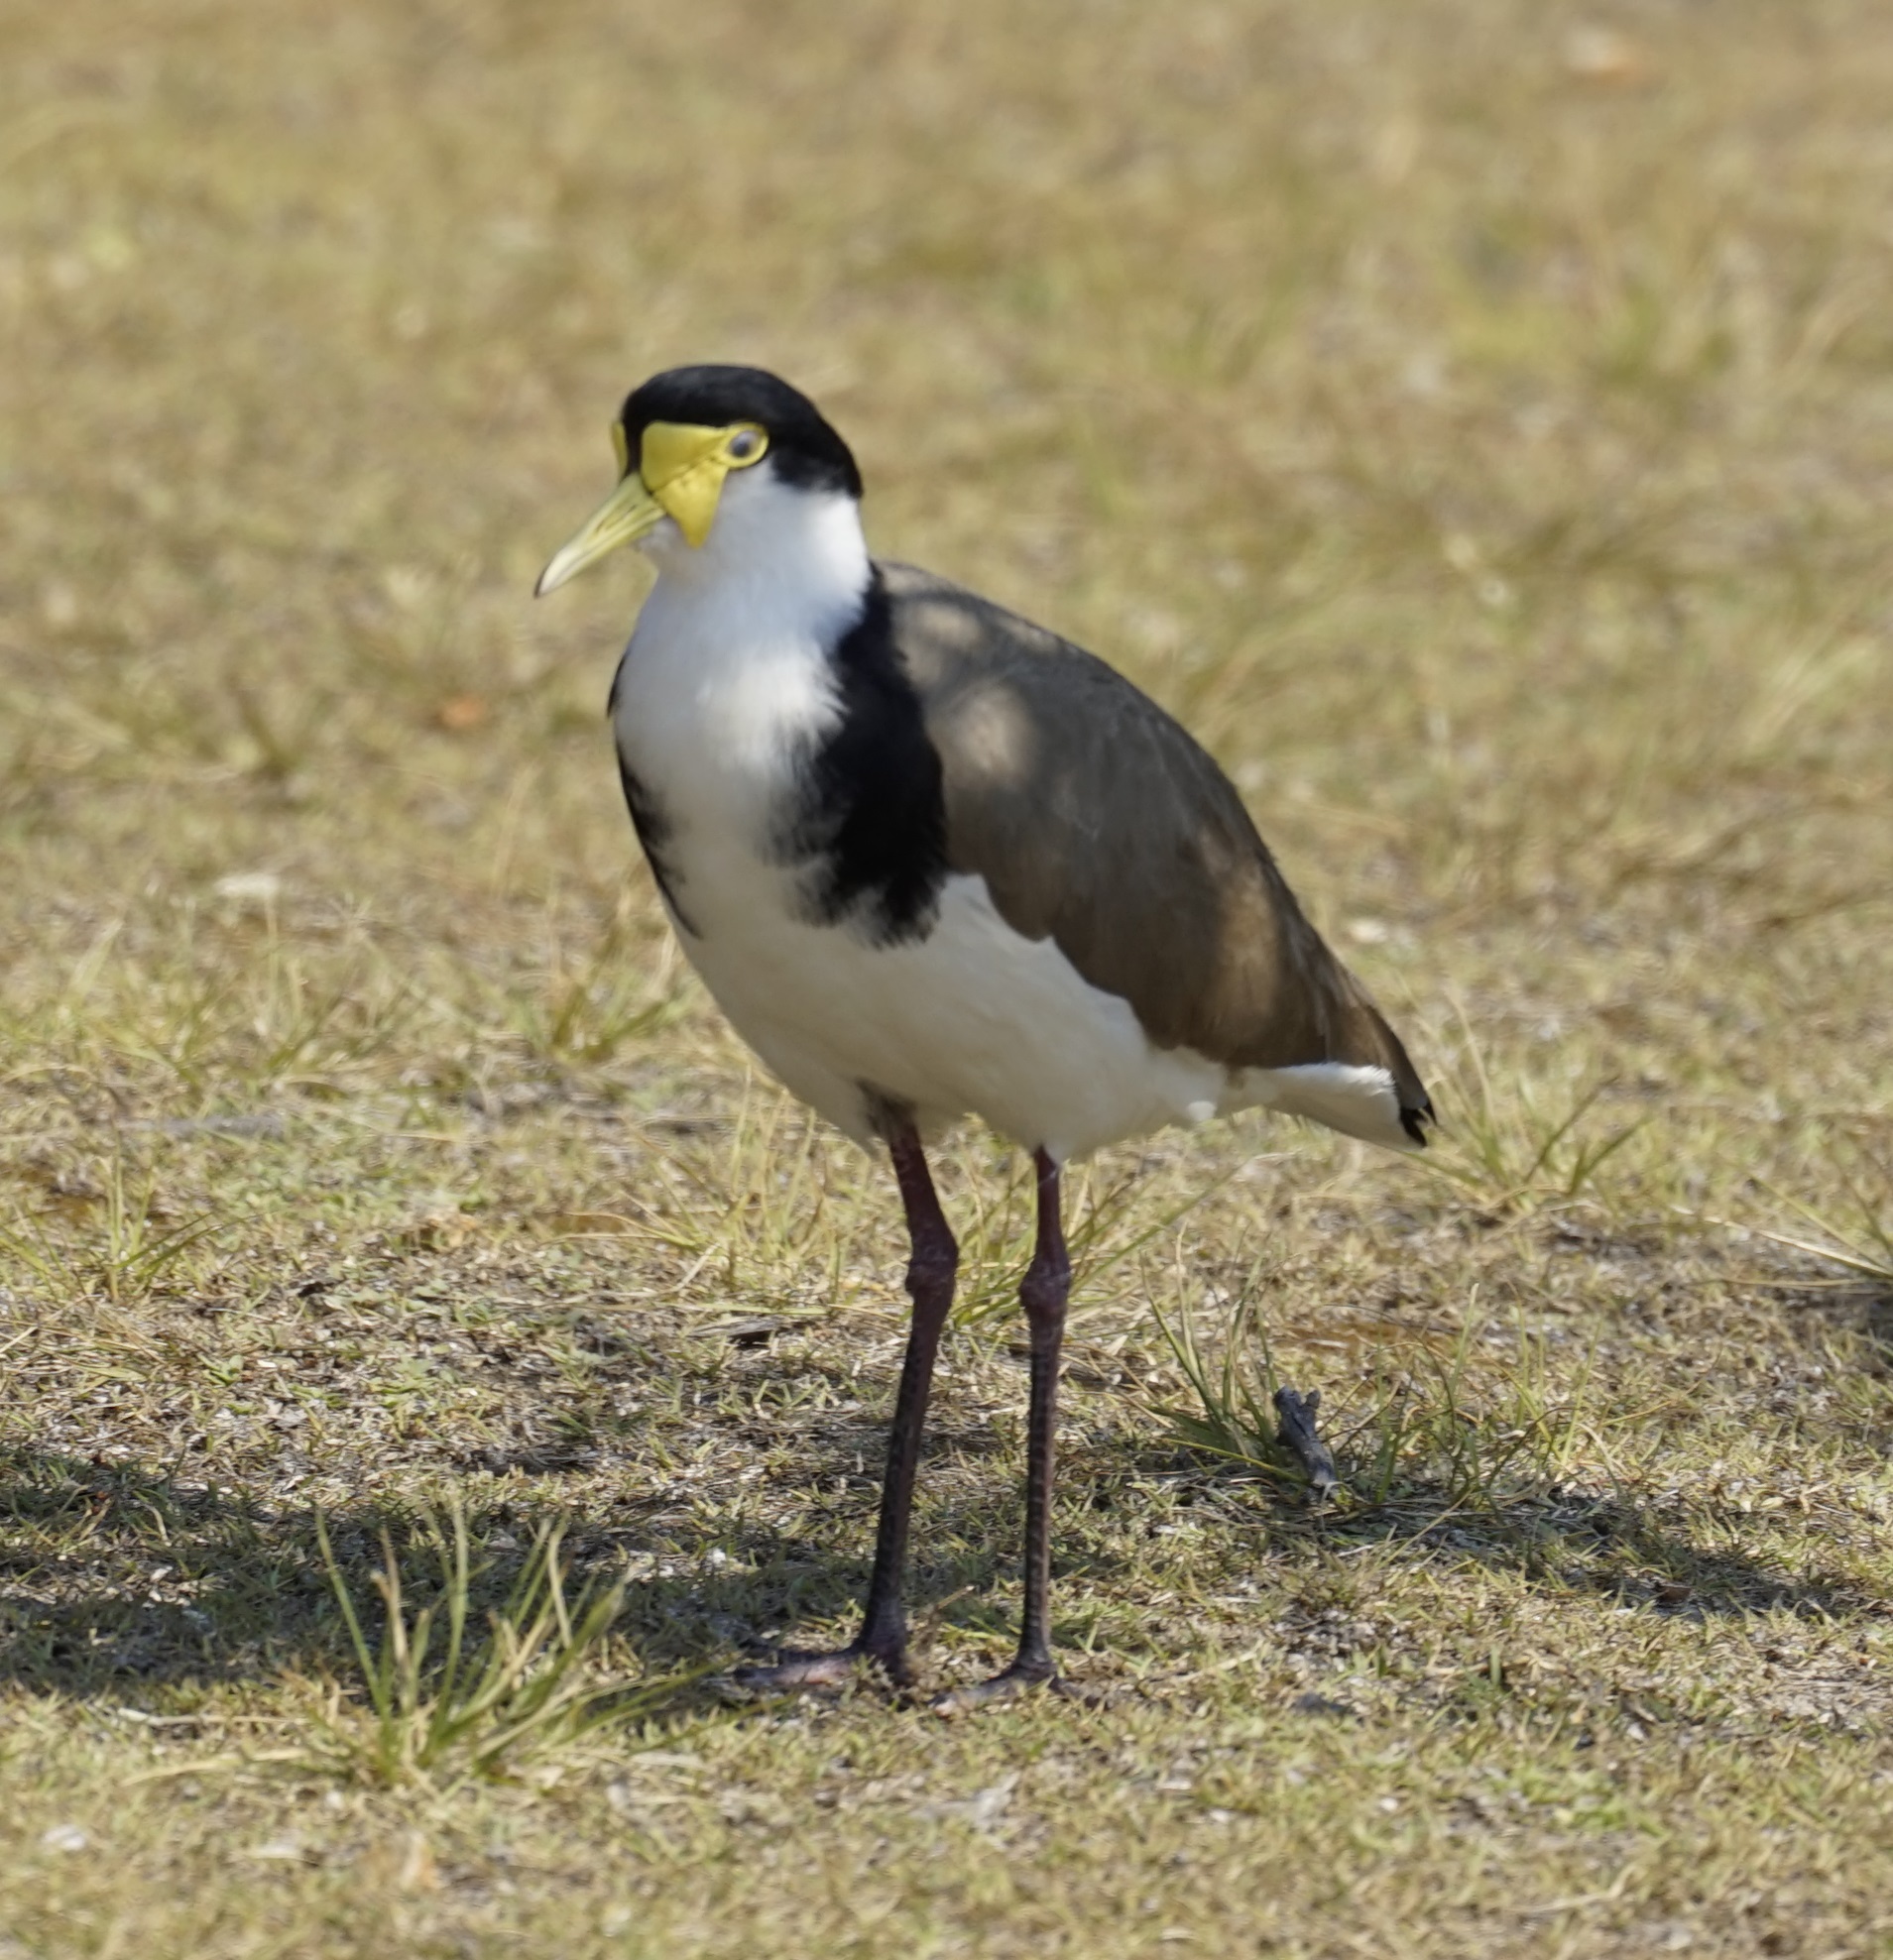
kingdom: Animalia
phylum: Chordata
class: Aves
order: Charadriiformes
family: Charadriidae
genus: Vanellus
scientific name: Vanellus miles
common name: Masked lapwing
